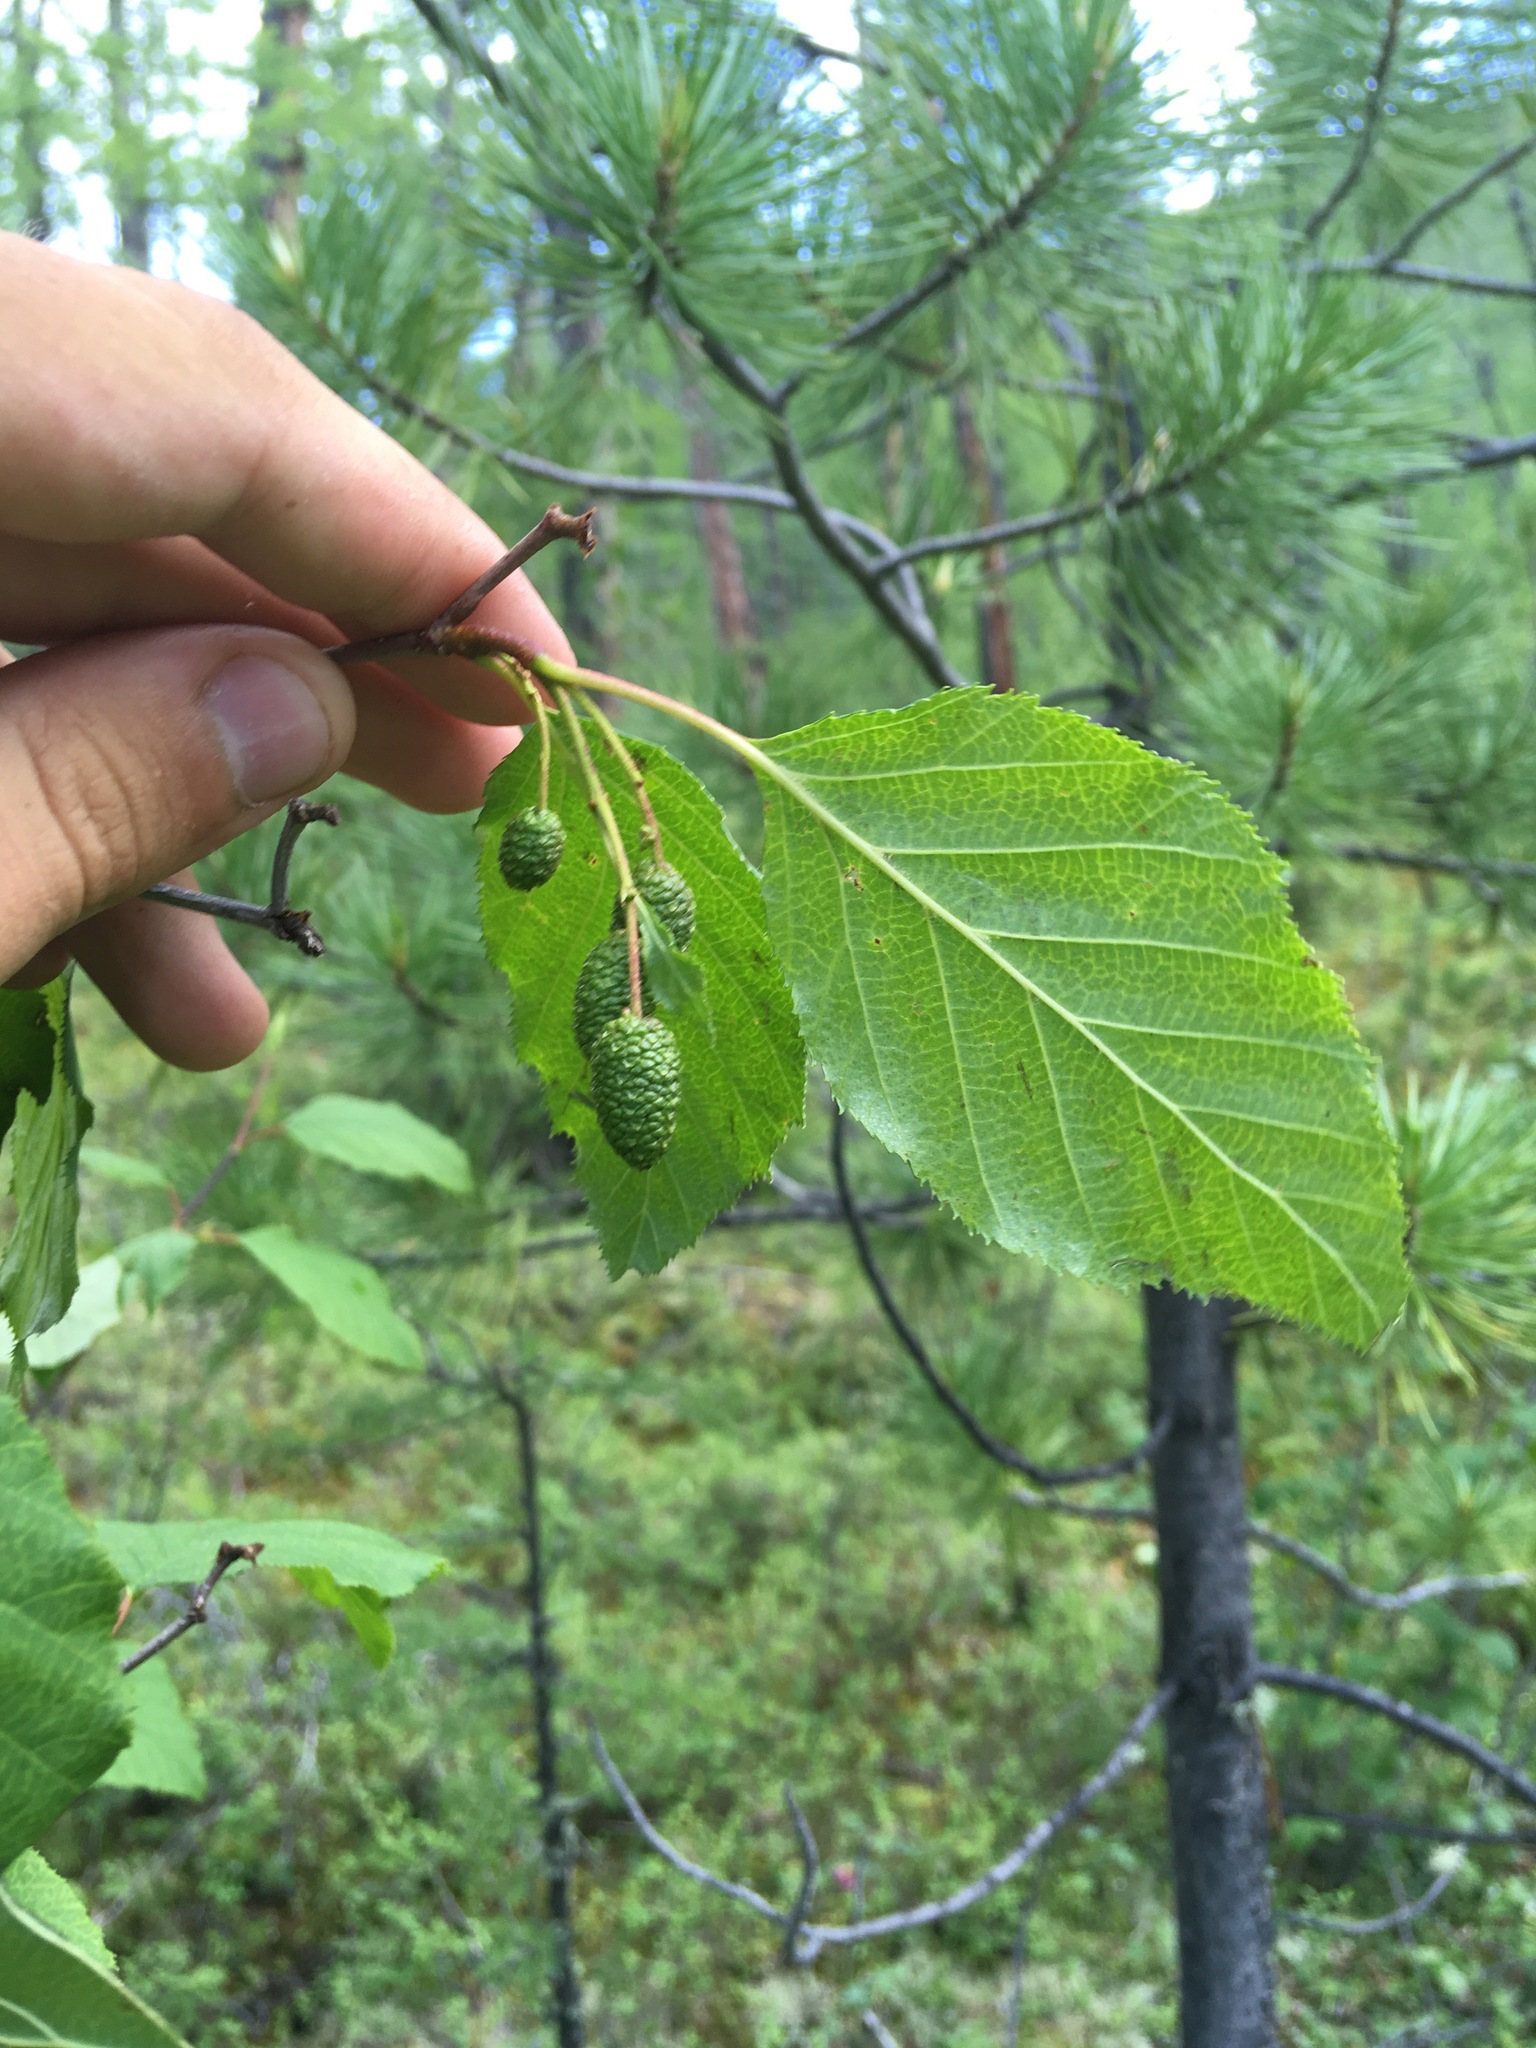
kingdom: Plantae
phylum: Tracheophyta
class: Magnoliopsida
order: Fagales
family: Betulaceae
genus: Alnus
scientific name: Alnus alnobetula
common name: Green alder
